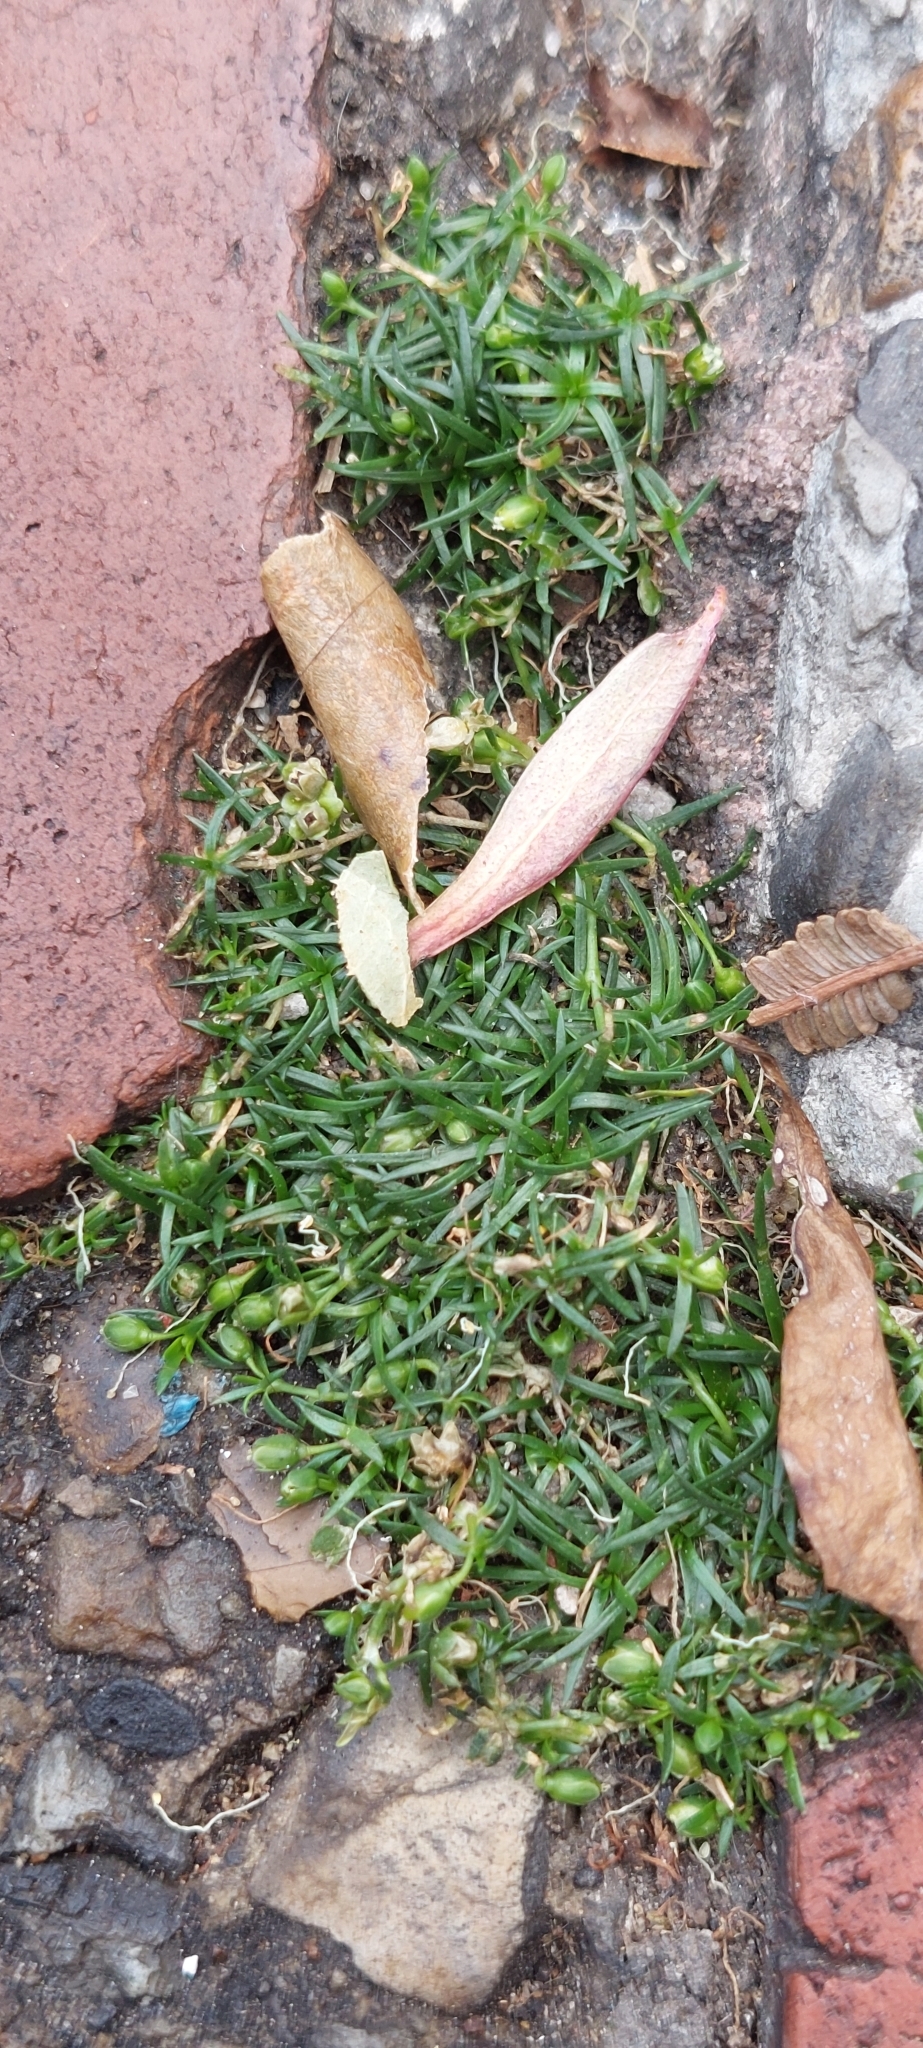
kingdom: Plantae
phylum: Tracheophyta
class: Magnoliopsida
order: Caryophyllales
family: Caryophyllaceae
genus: Sagina
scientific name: Sagina procumbens
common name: Procumbent pearlwort
